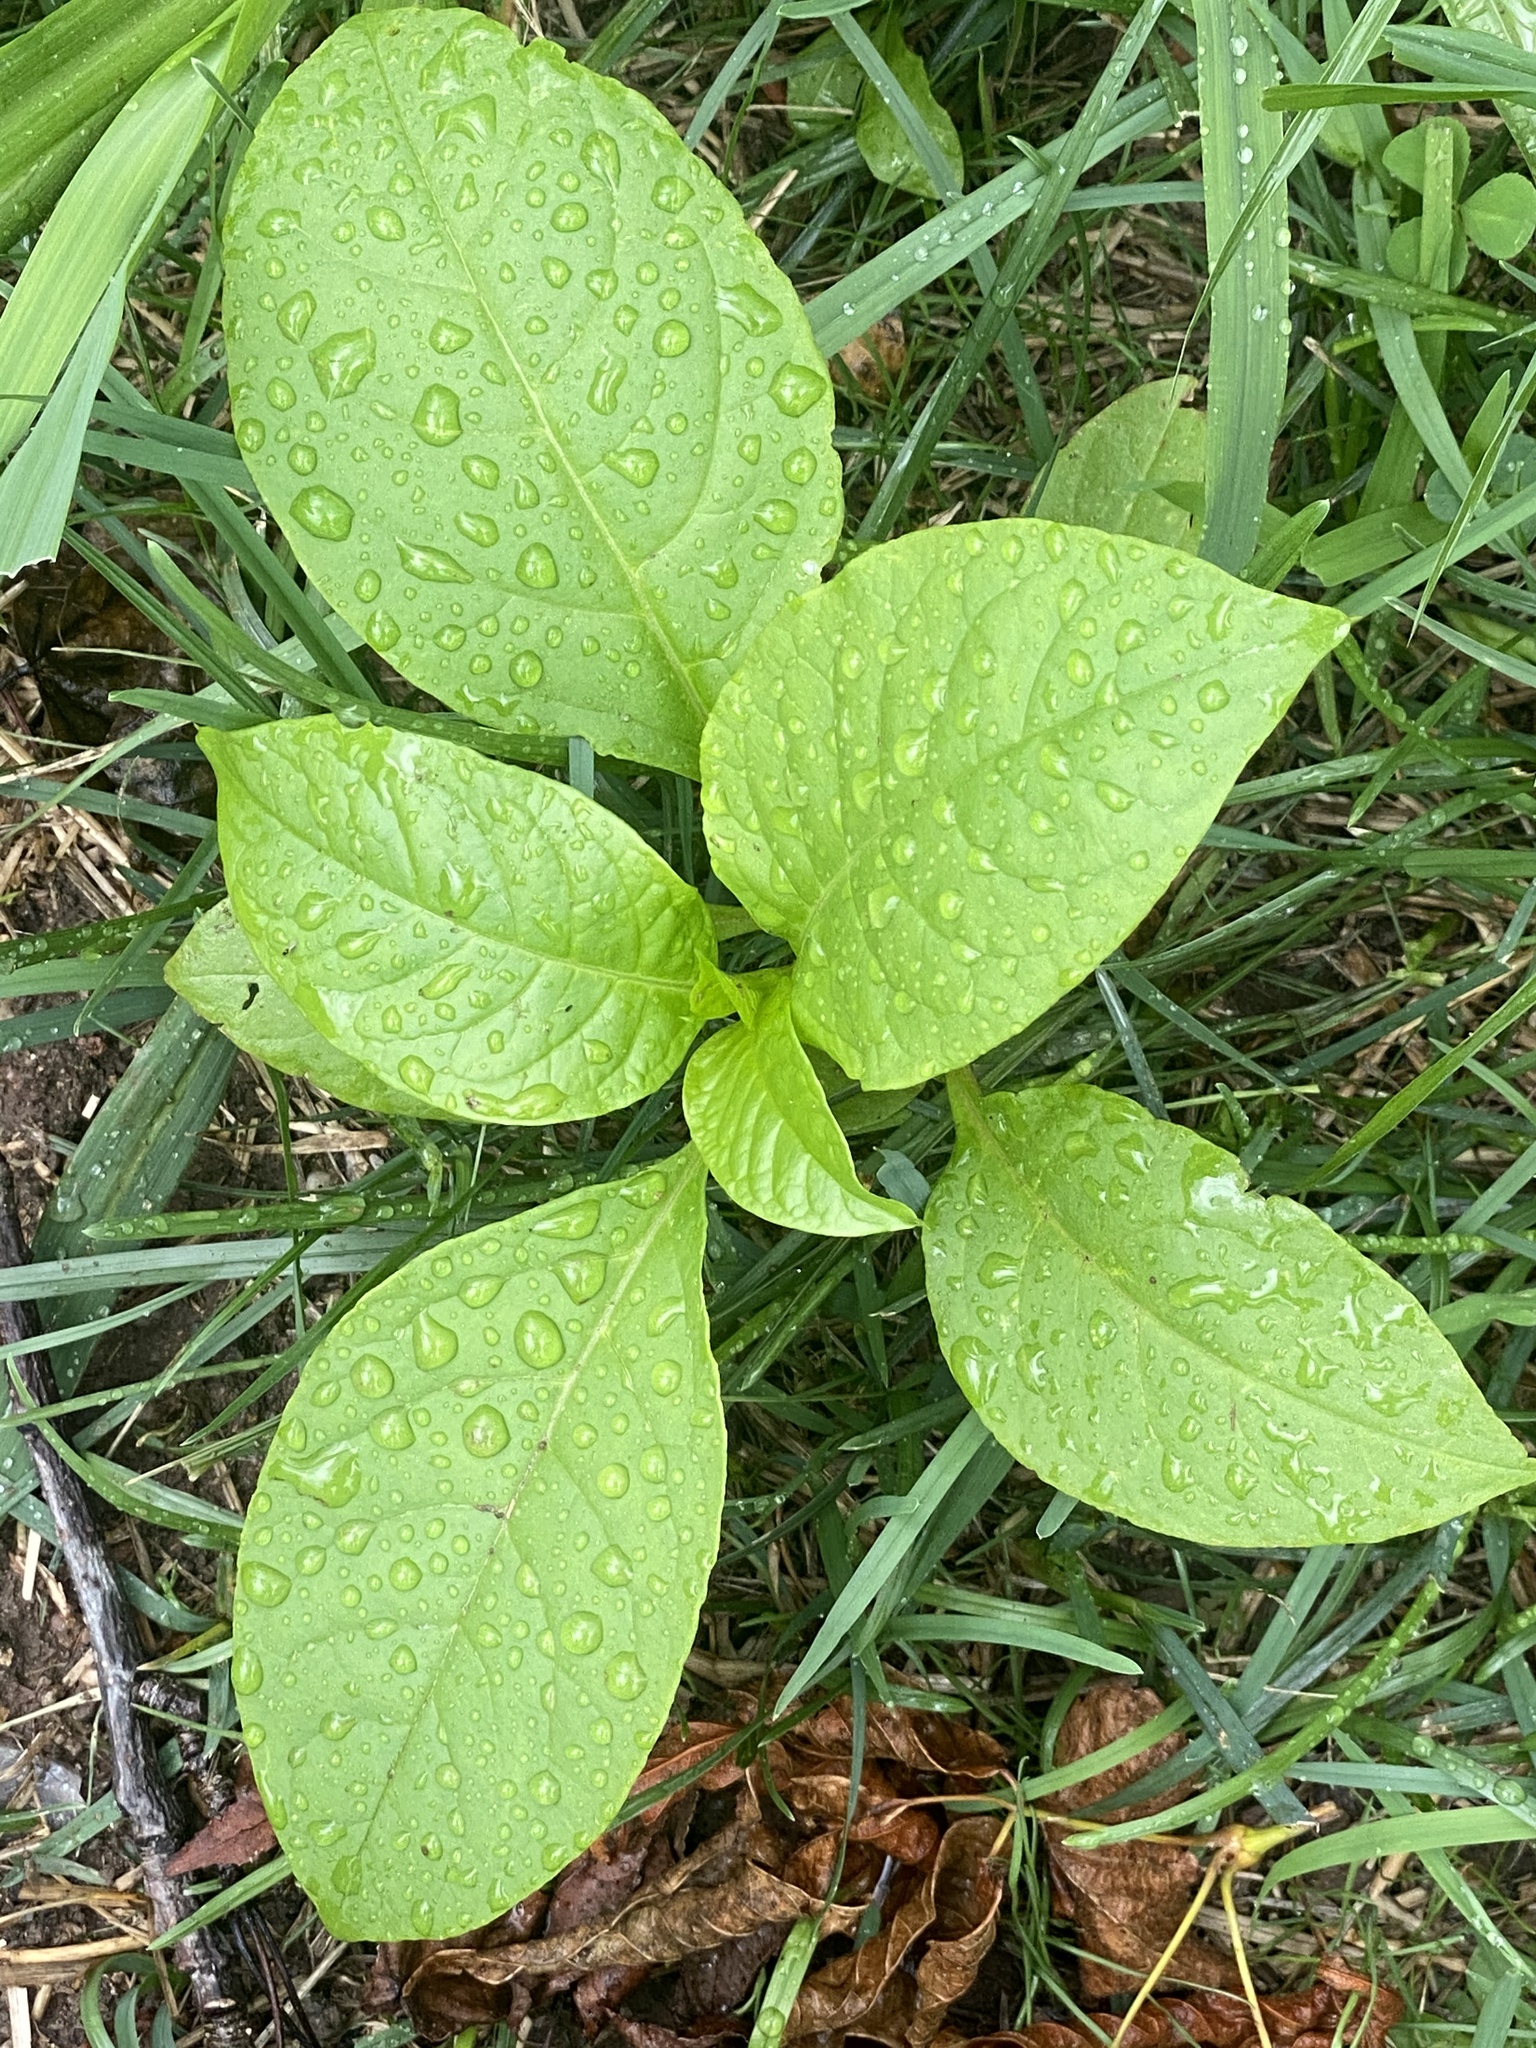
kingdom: Plantae
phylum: Tracheophyta
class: Magnoliopsida
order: Caryophyllales
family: Phytolaccaceae
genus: Phytolacca
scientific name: Phytolacca americana
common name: American pokeweed
